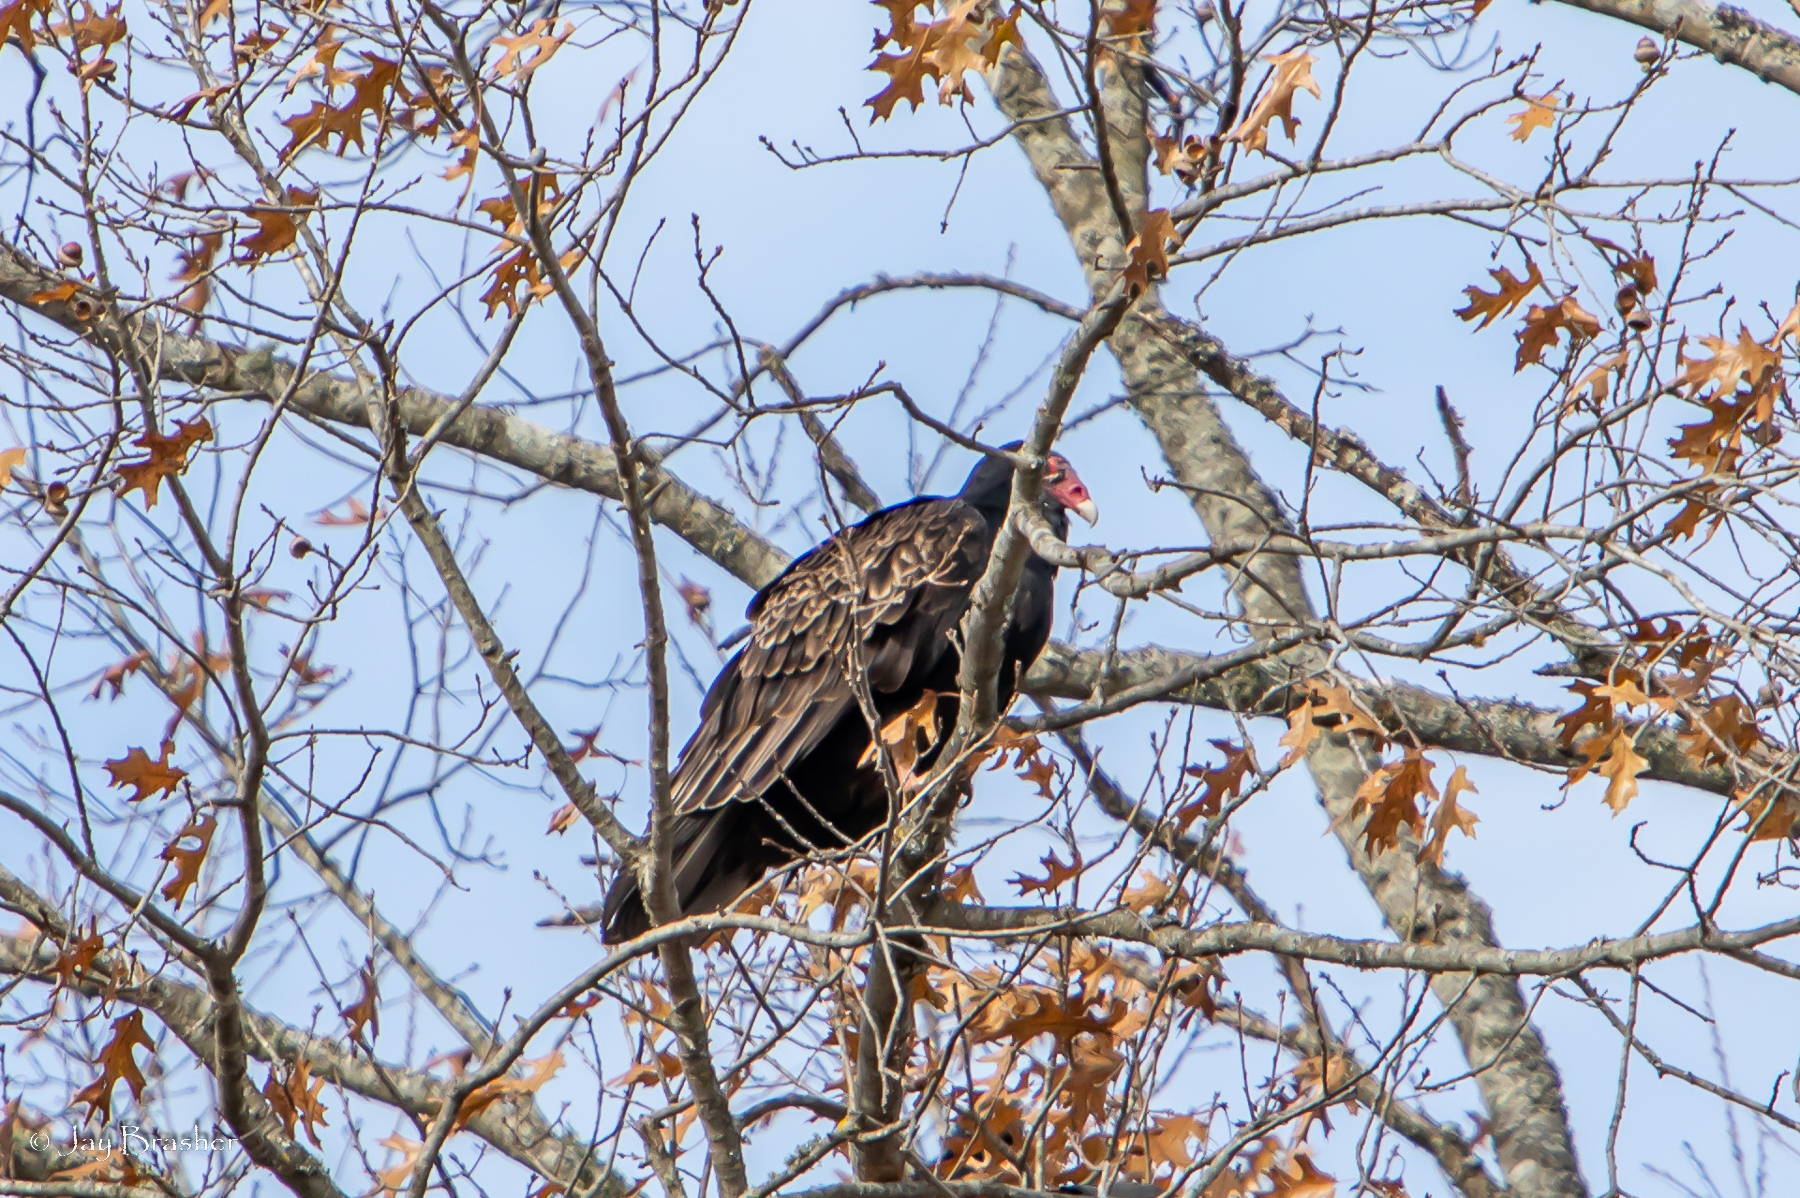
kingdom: Animalia
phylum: Chordata
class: Aves
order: Accipitriformes
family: Cathartidae
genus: Cathartes
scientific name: Cathartes aura
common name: Turkey vulture
